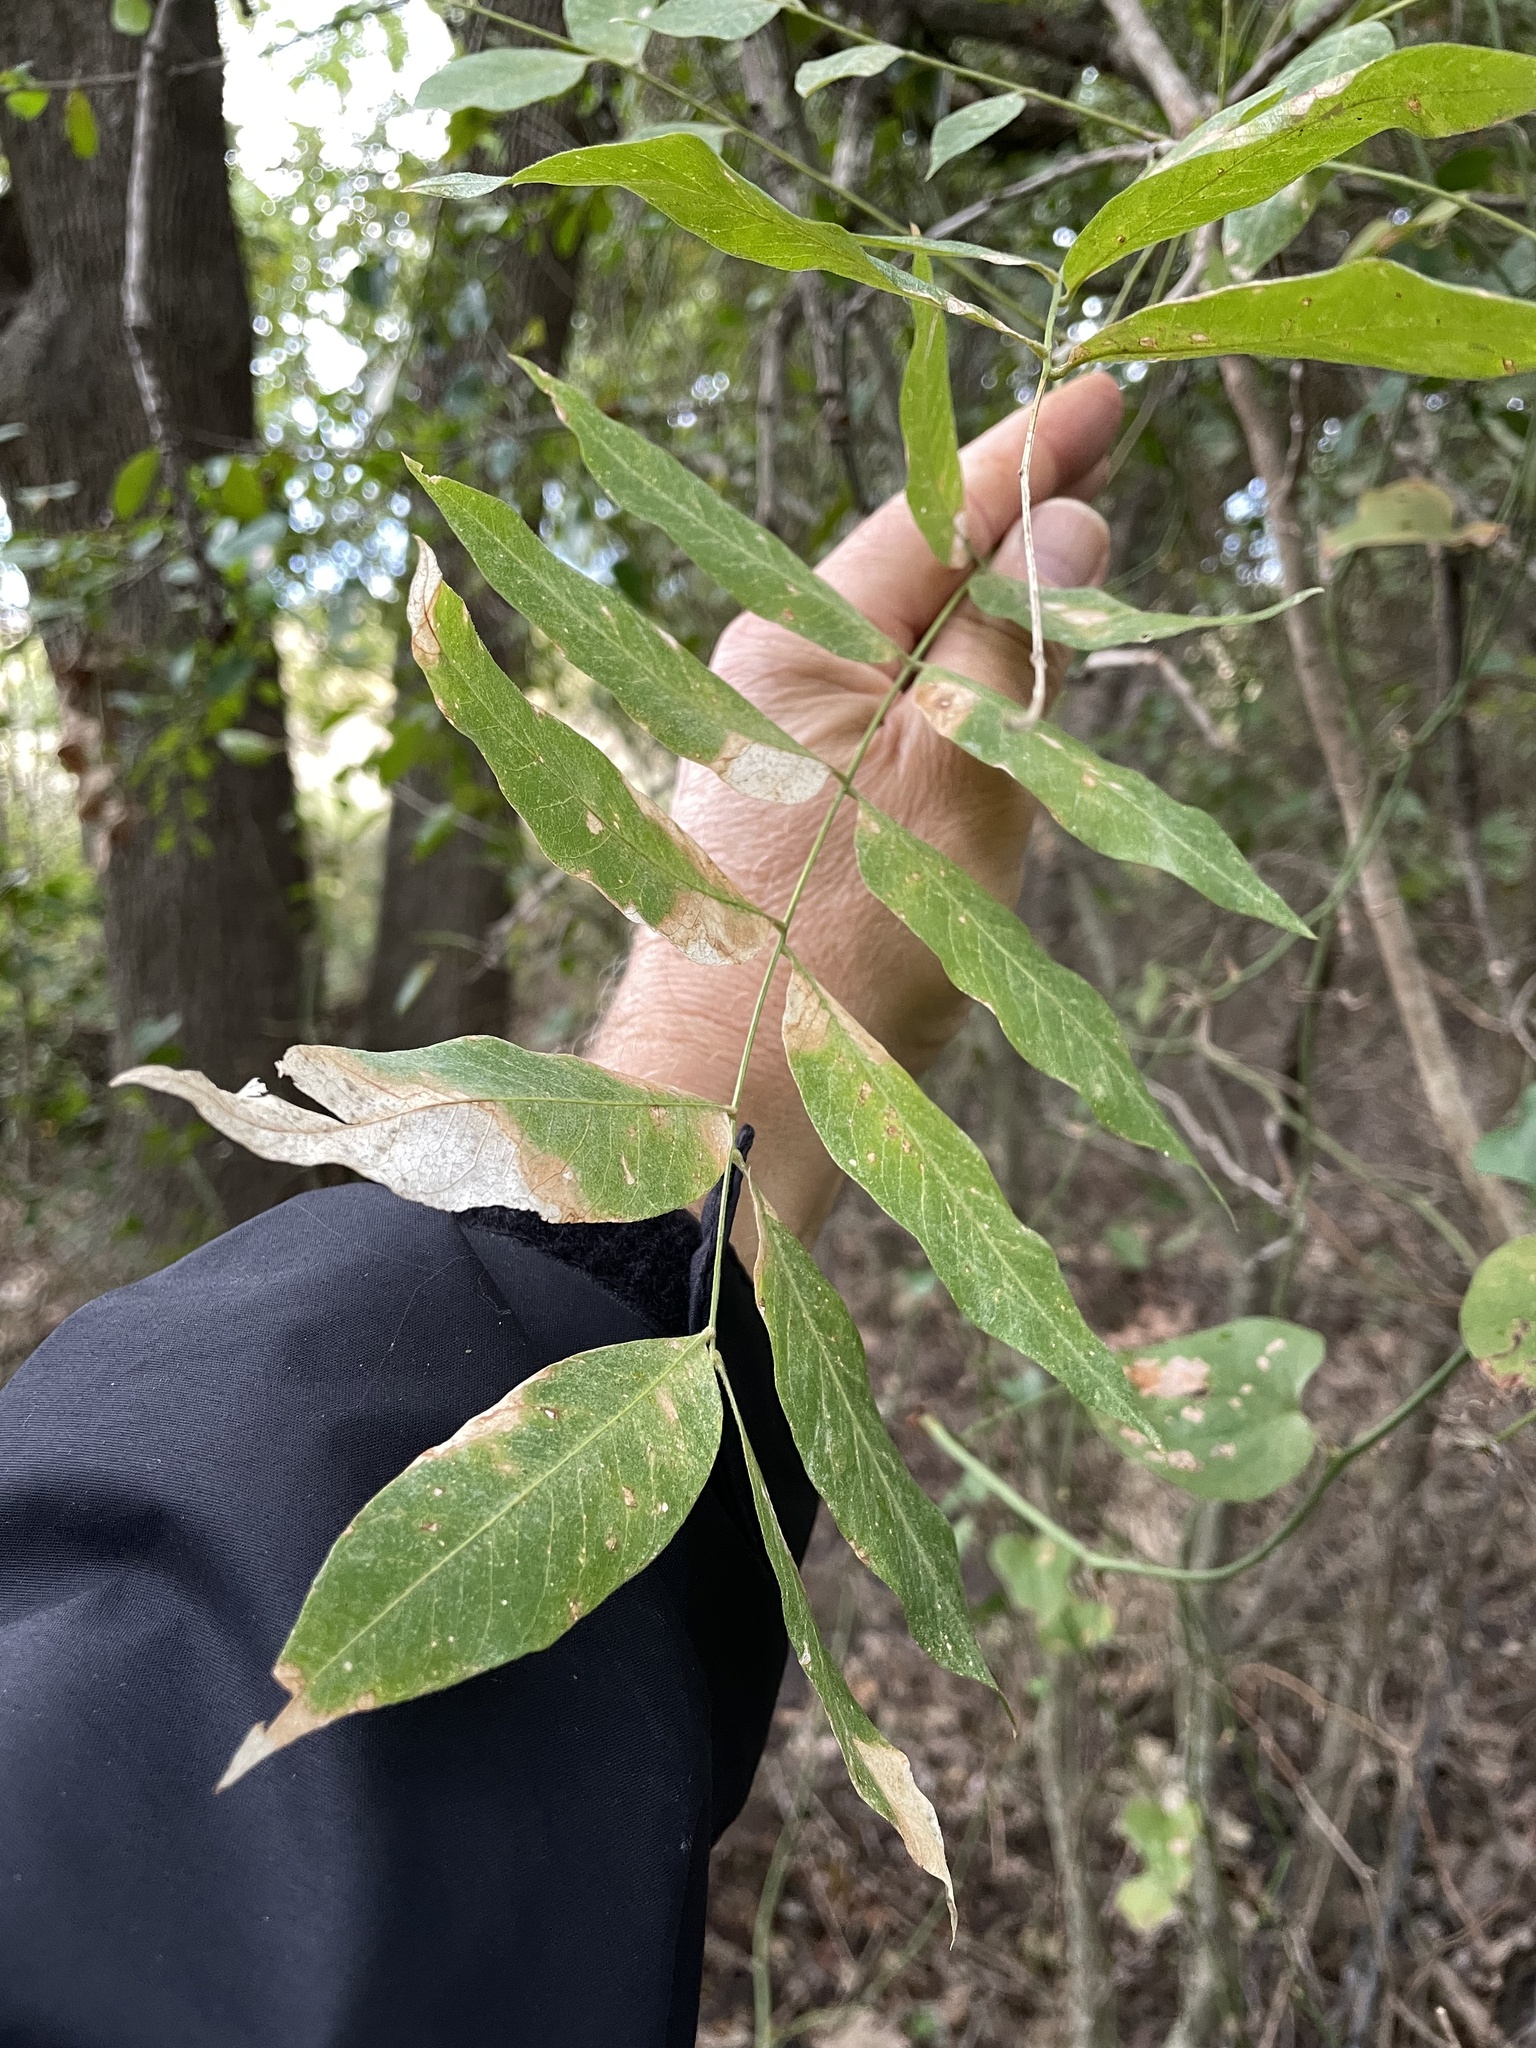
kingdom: Plantae
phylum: Tracheophyta
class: Magnoliopsida
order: Sapindales
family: Sapindaceae
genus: Sapindus
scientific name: Sapindus drummondii
